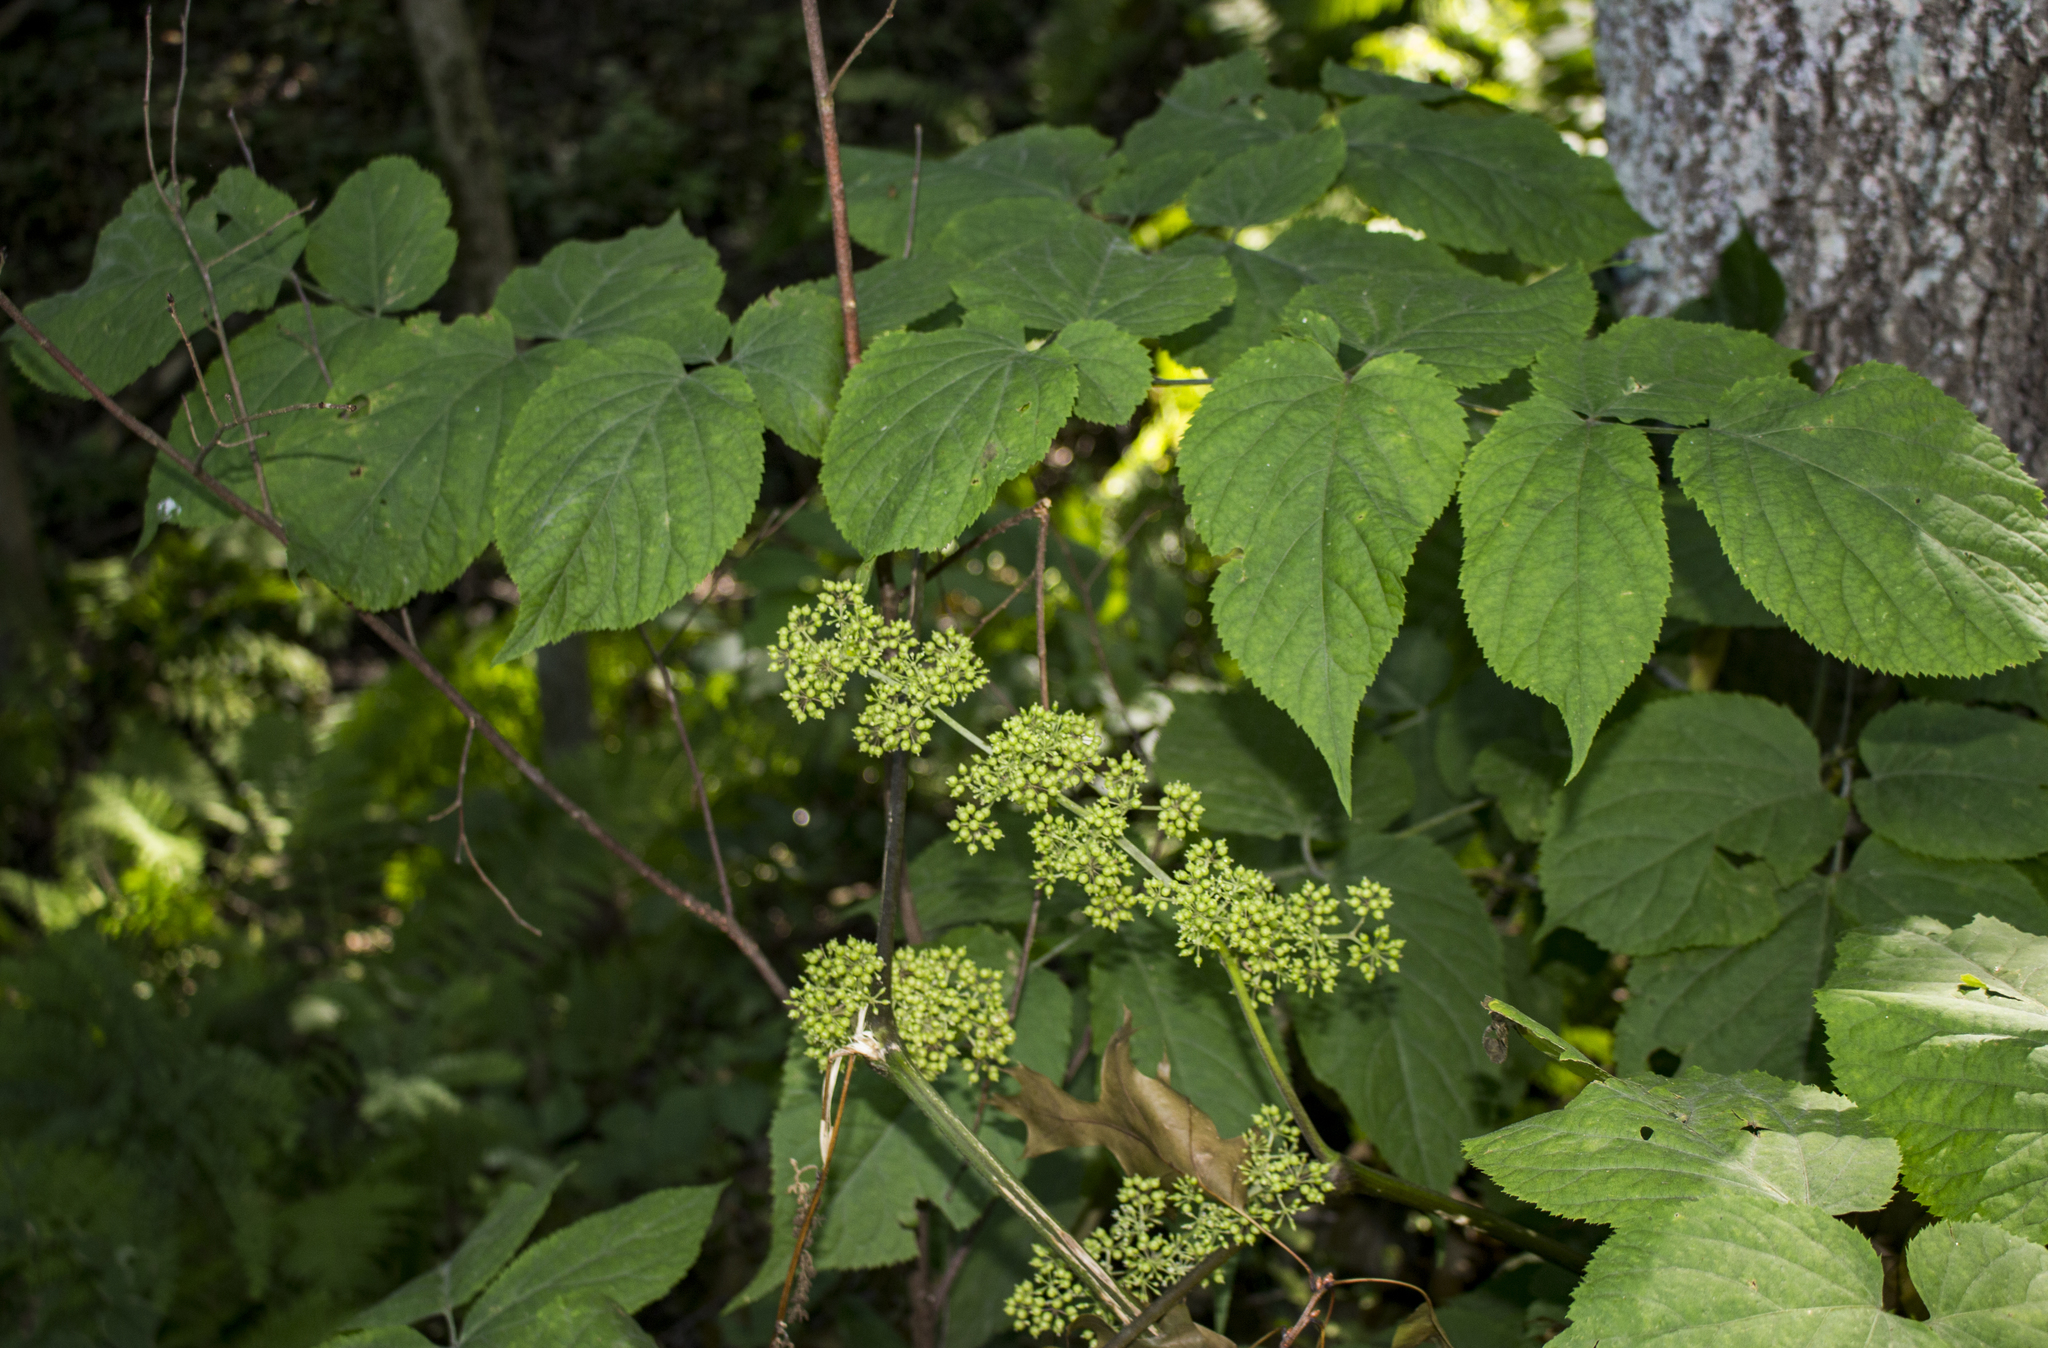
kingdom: Plantae
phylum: Tracheophyta
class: Magnoliopsida
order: Apiales
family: Araliaceae
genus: Aralia
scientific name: Aralia racemosa
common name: American-spikenard
